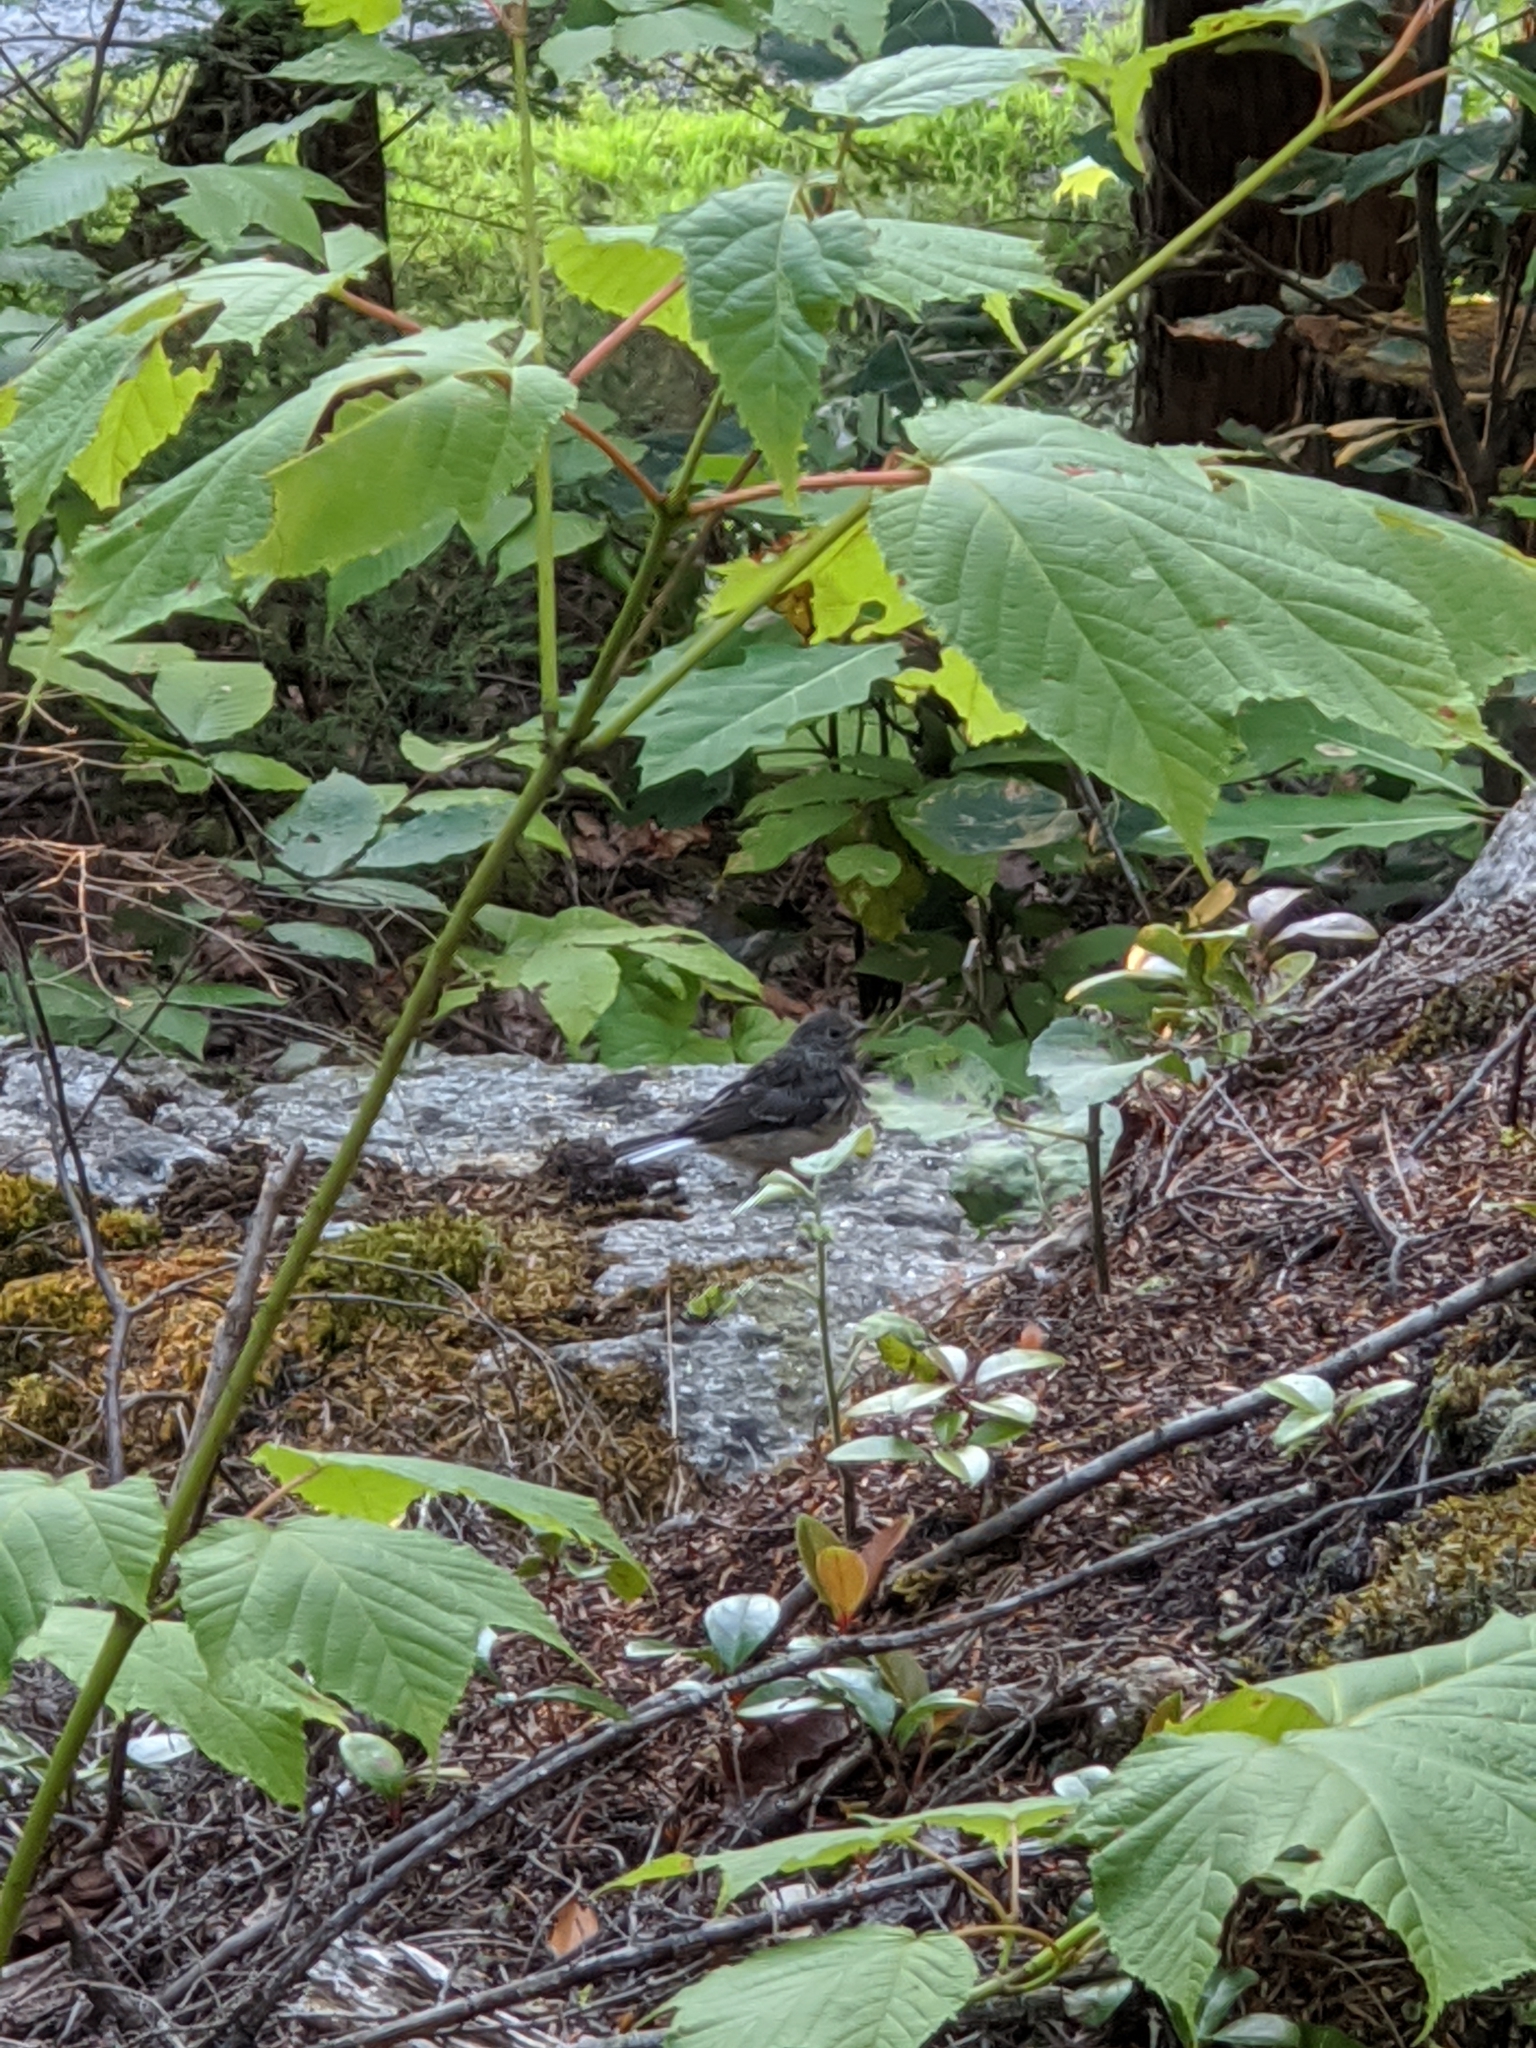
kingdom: Animalia
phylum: Chordata
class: Aves
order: Passeriformes
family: Passerellidae
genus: Junco
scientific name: Junco hyemalis
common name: Dark-eyed junco
